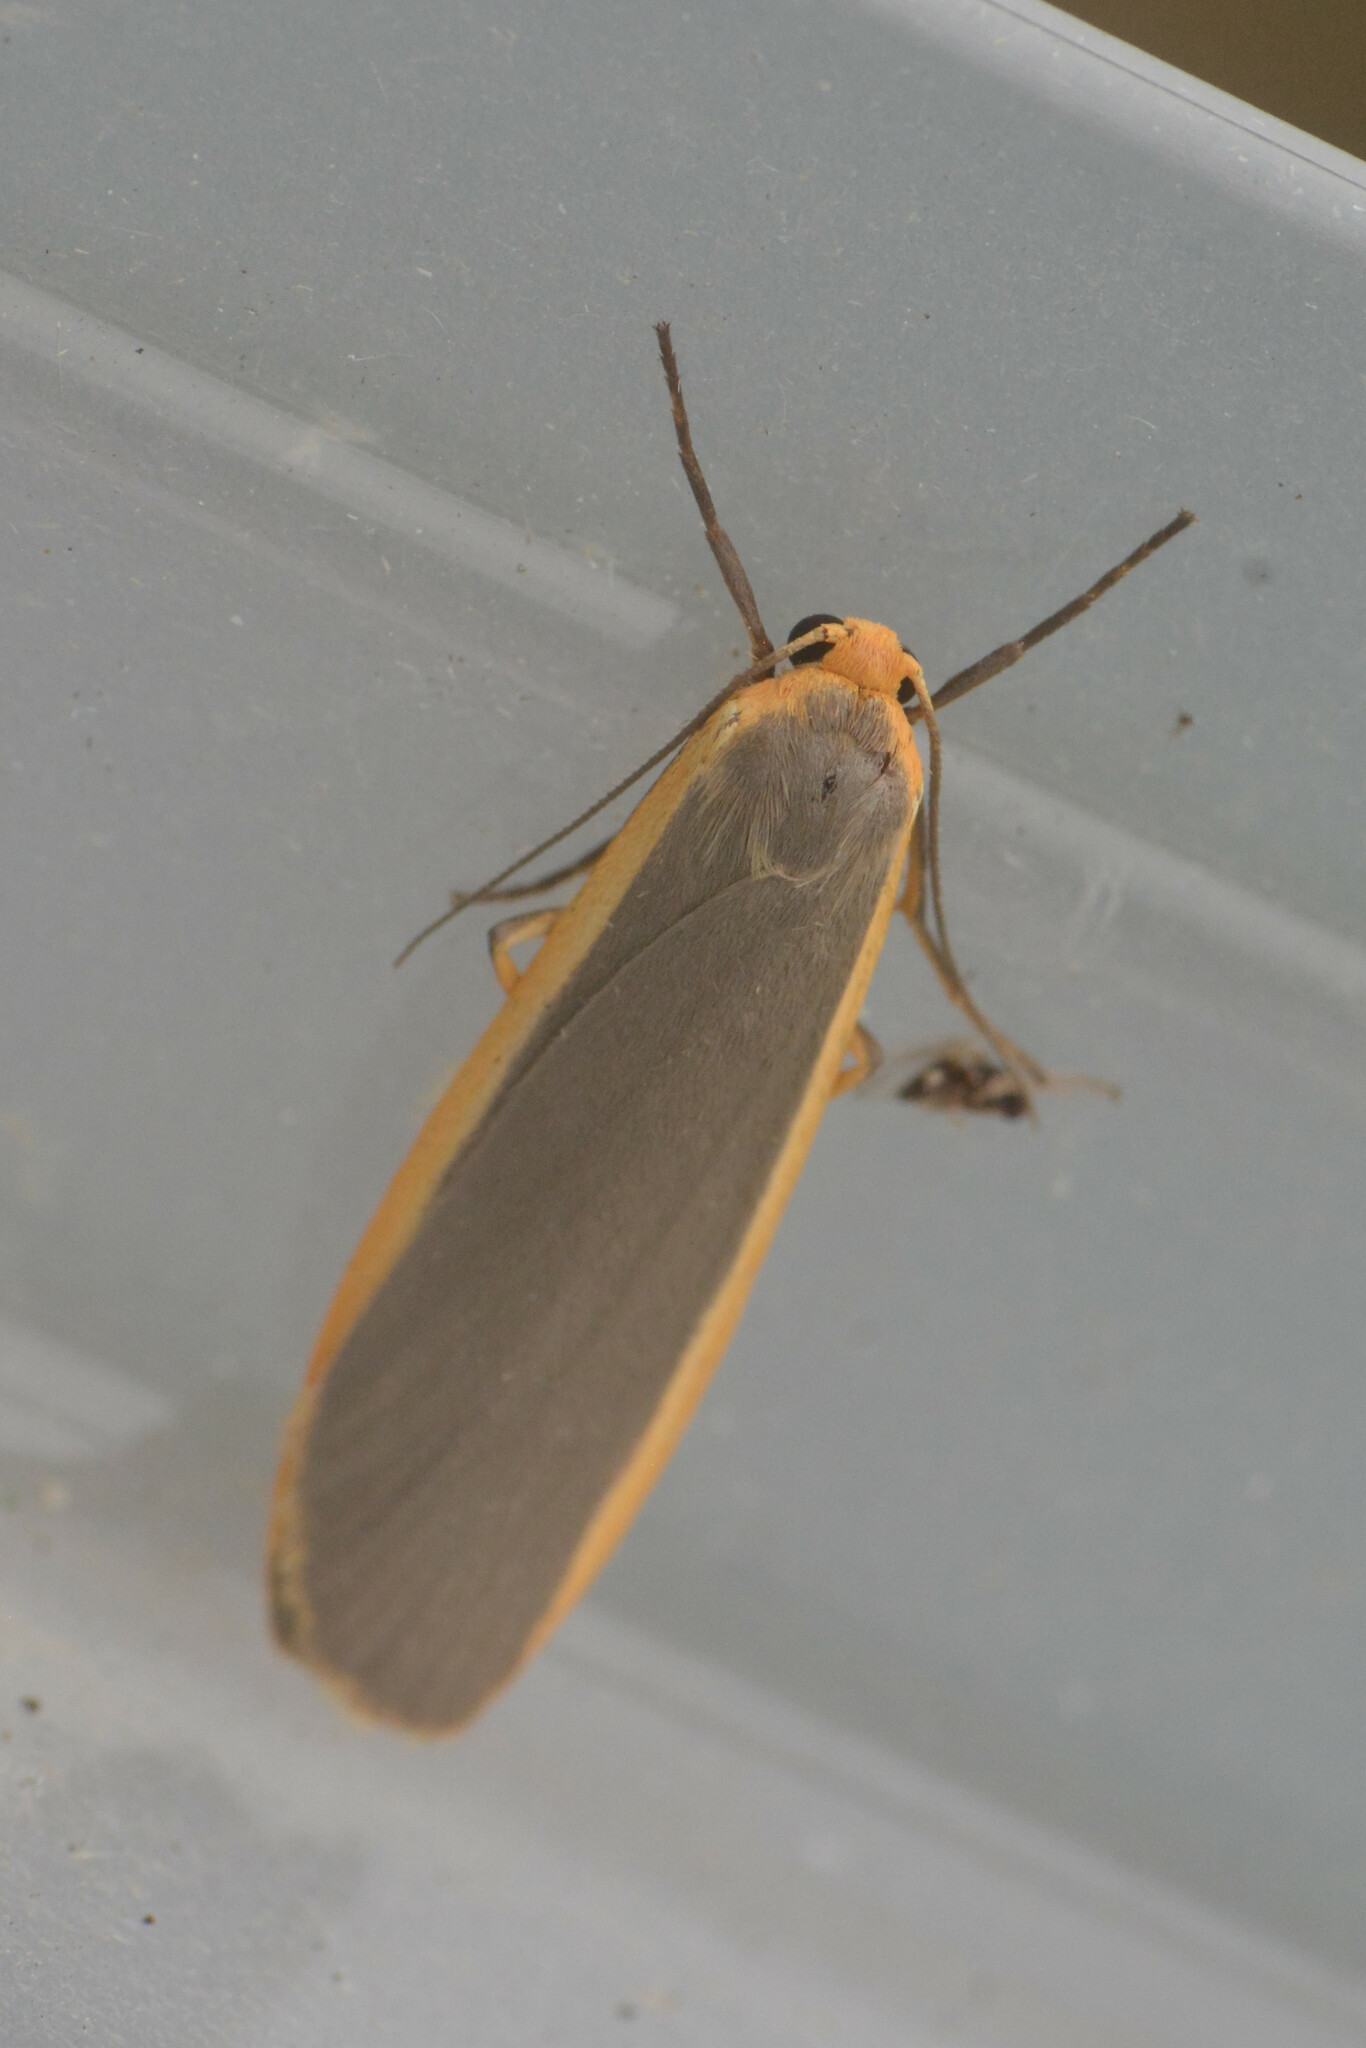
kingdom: Animalia
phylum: Arthropoda
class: Insecta
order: Lepidoptera
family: Erebidae
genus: Nyea
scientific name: Nyea lurideola
